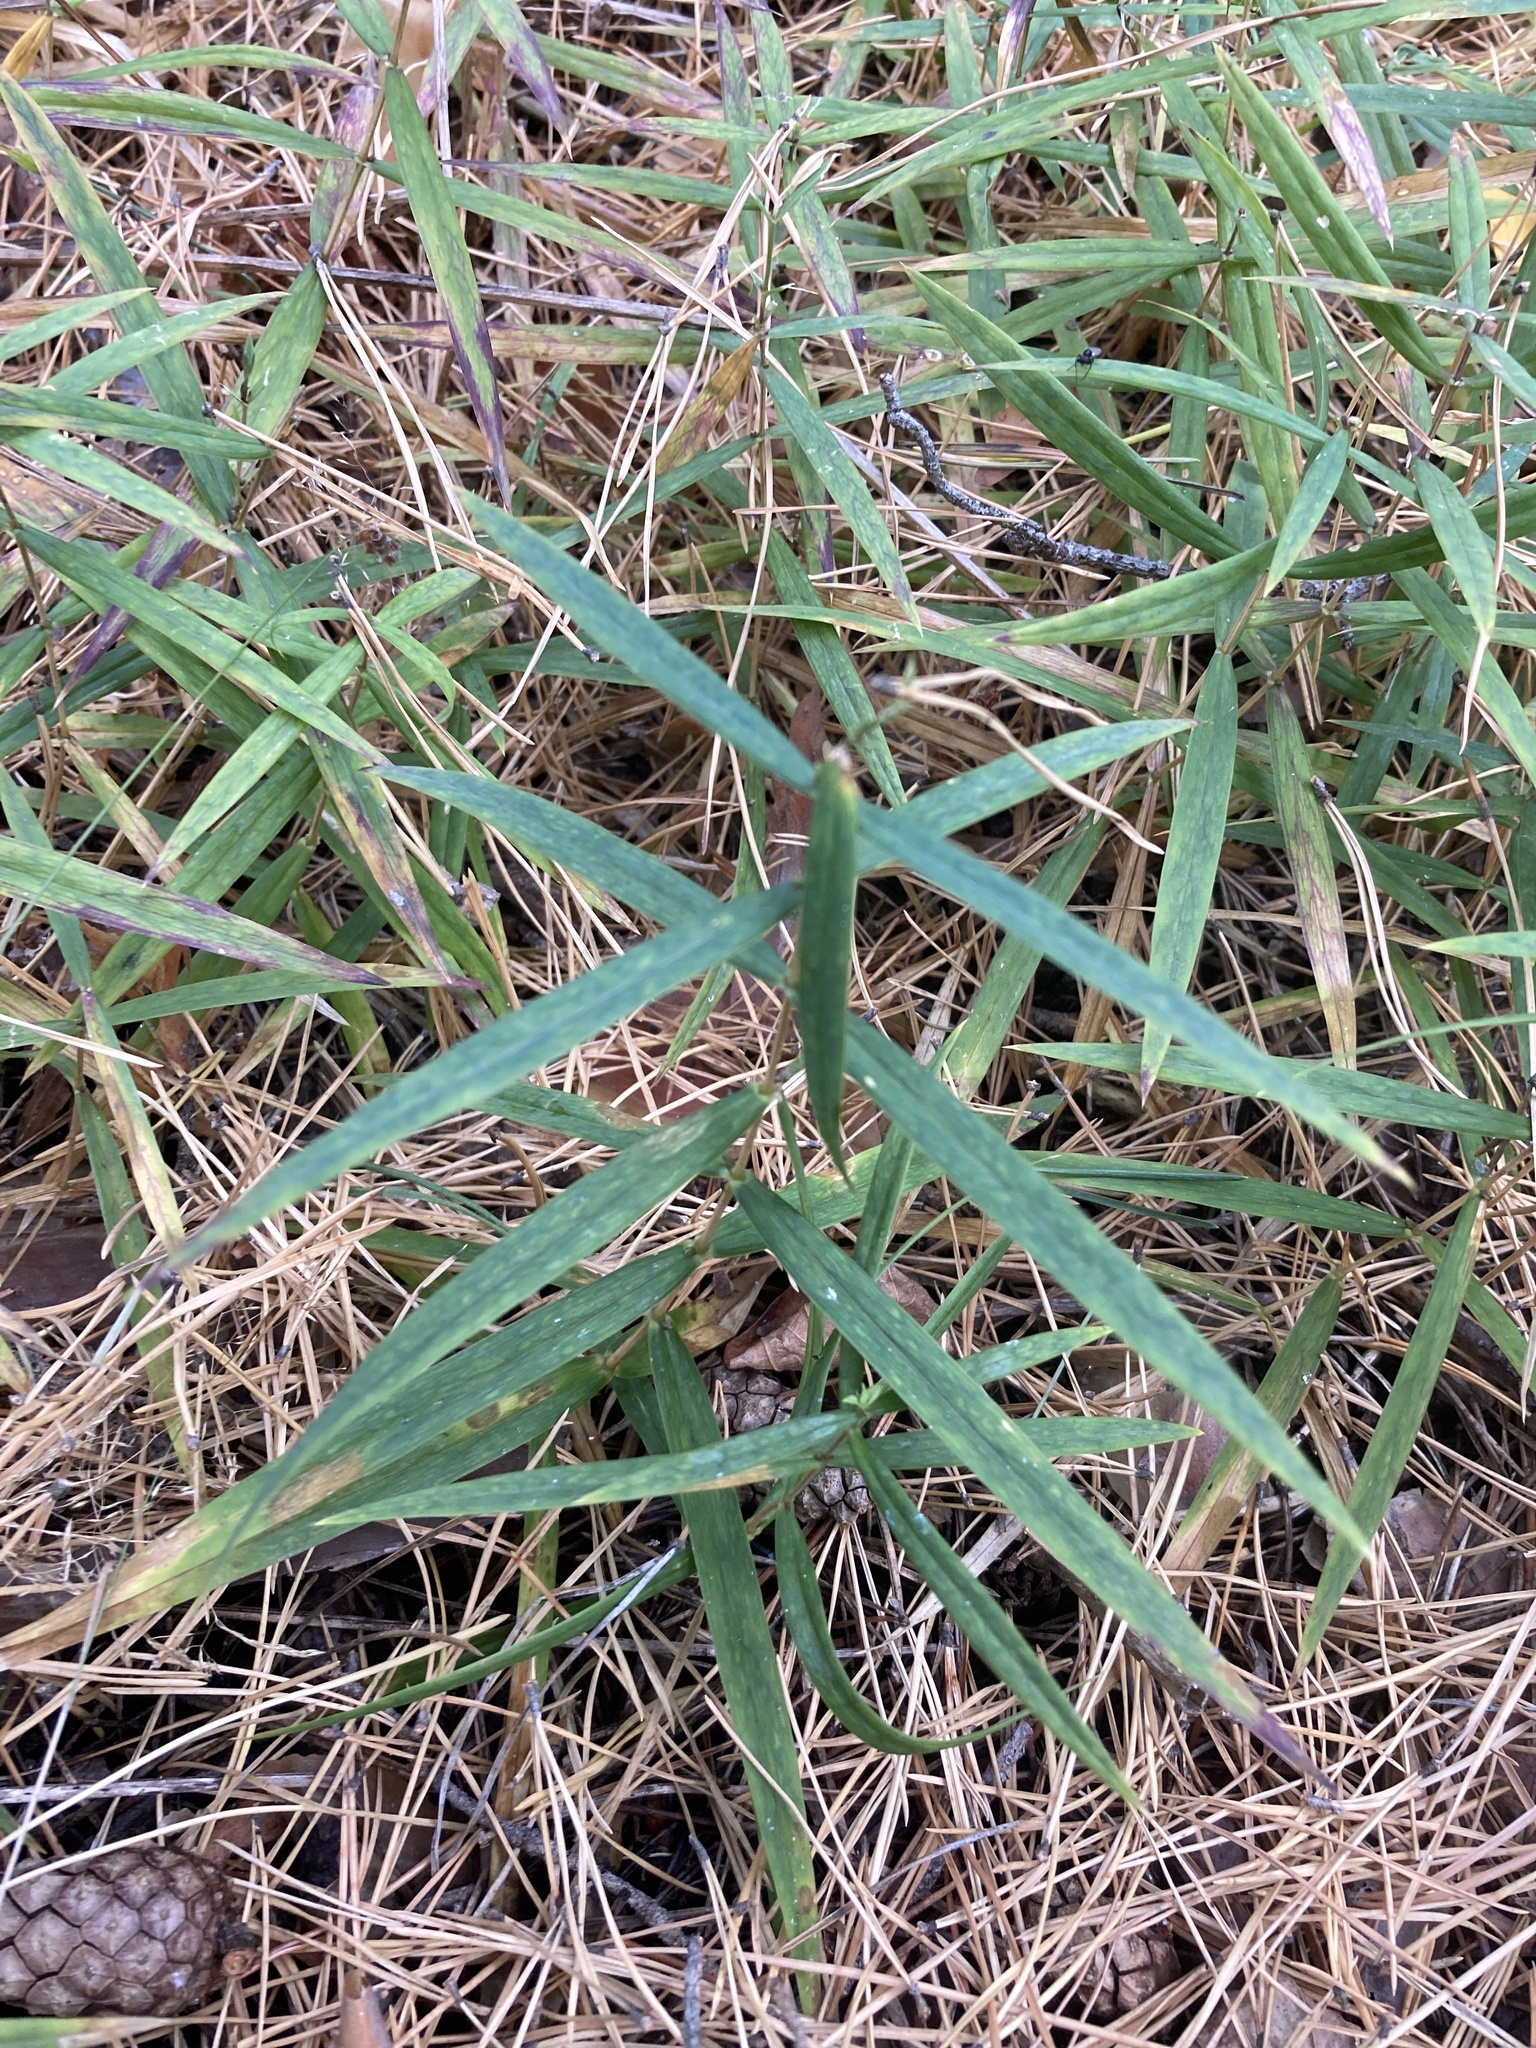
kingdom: Plantae
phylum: Tracheophyta
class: Magnoliopsida
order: Caryophyllales
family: Caryophyllaceae
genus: Rabelera
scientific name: Rabelera holostea
